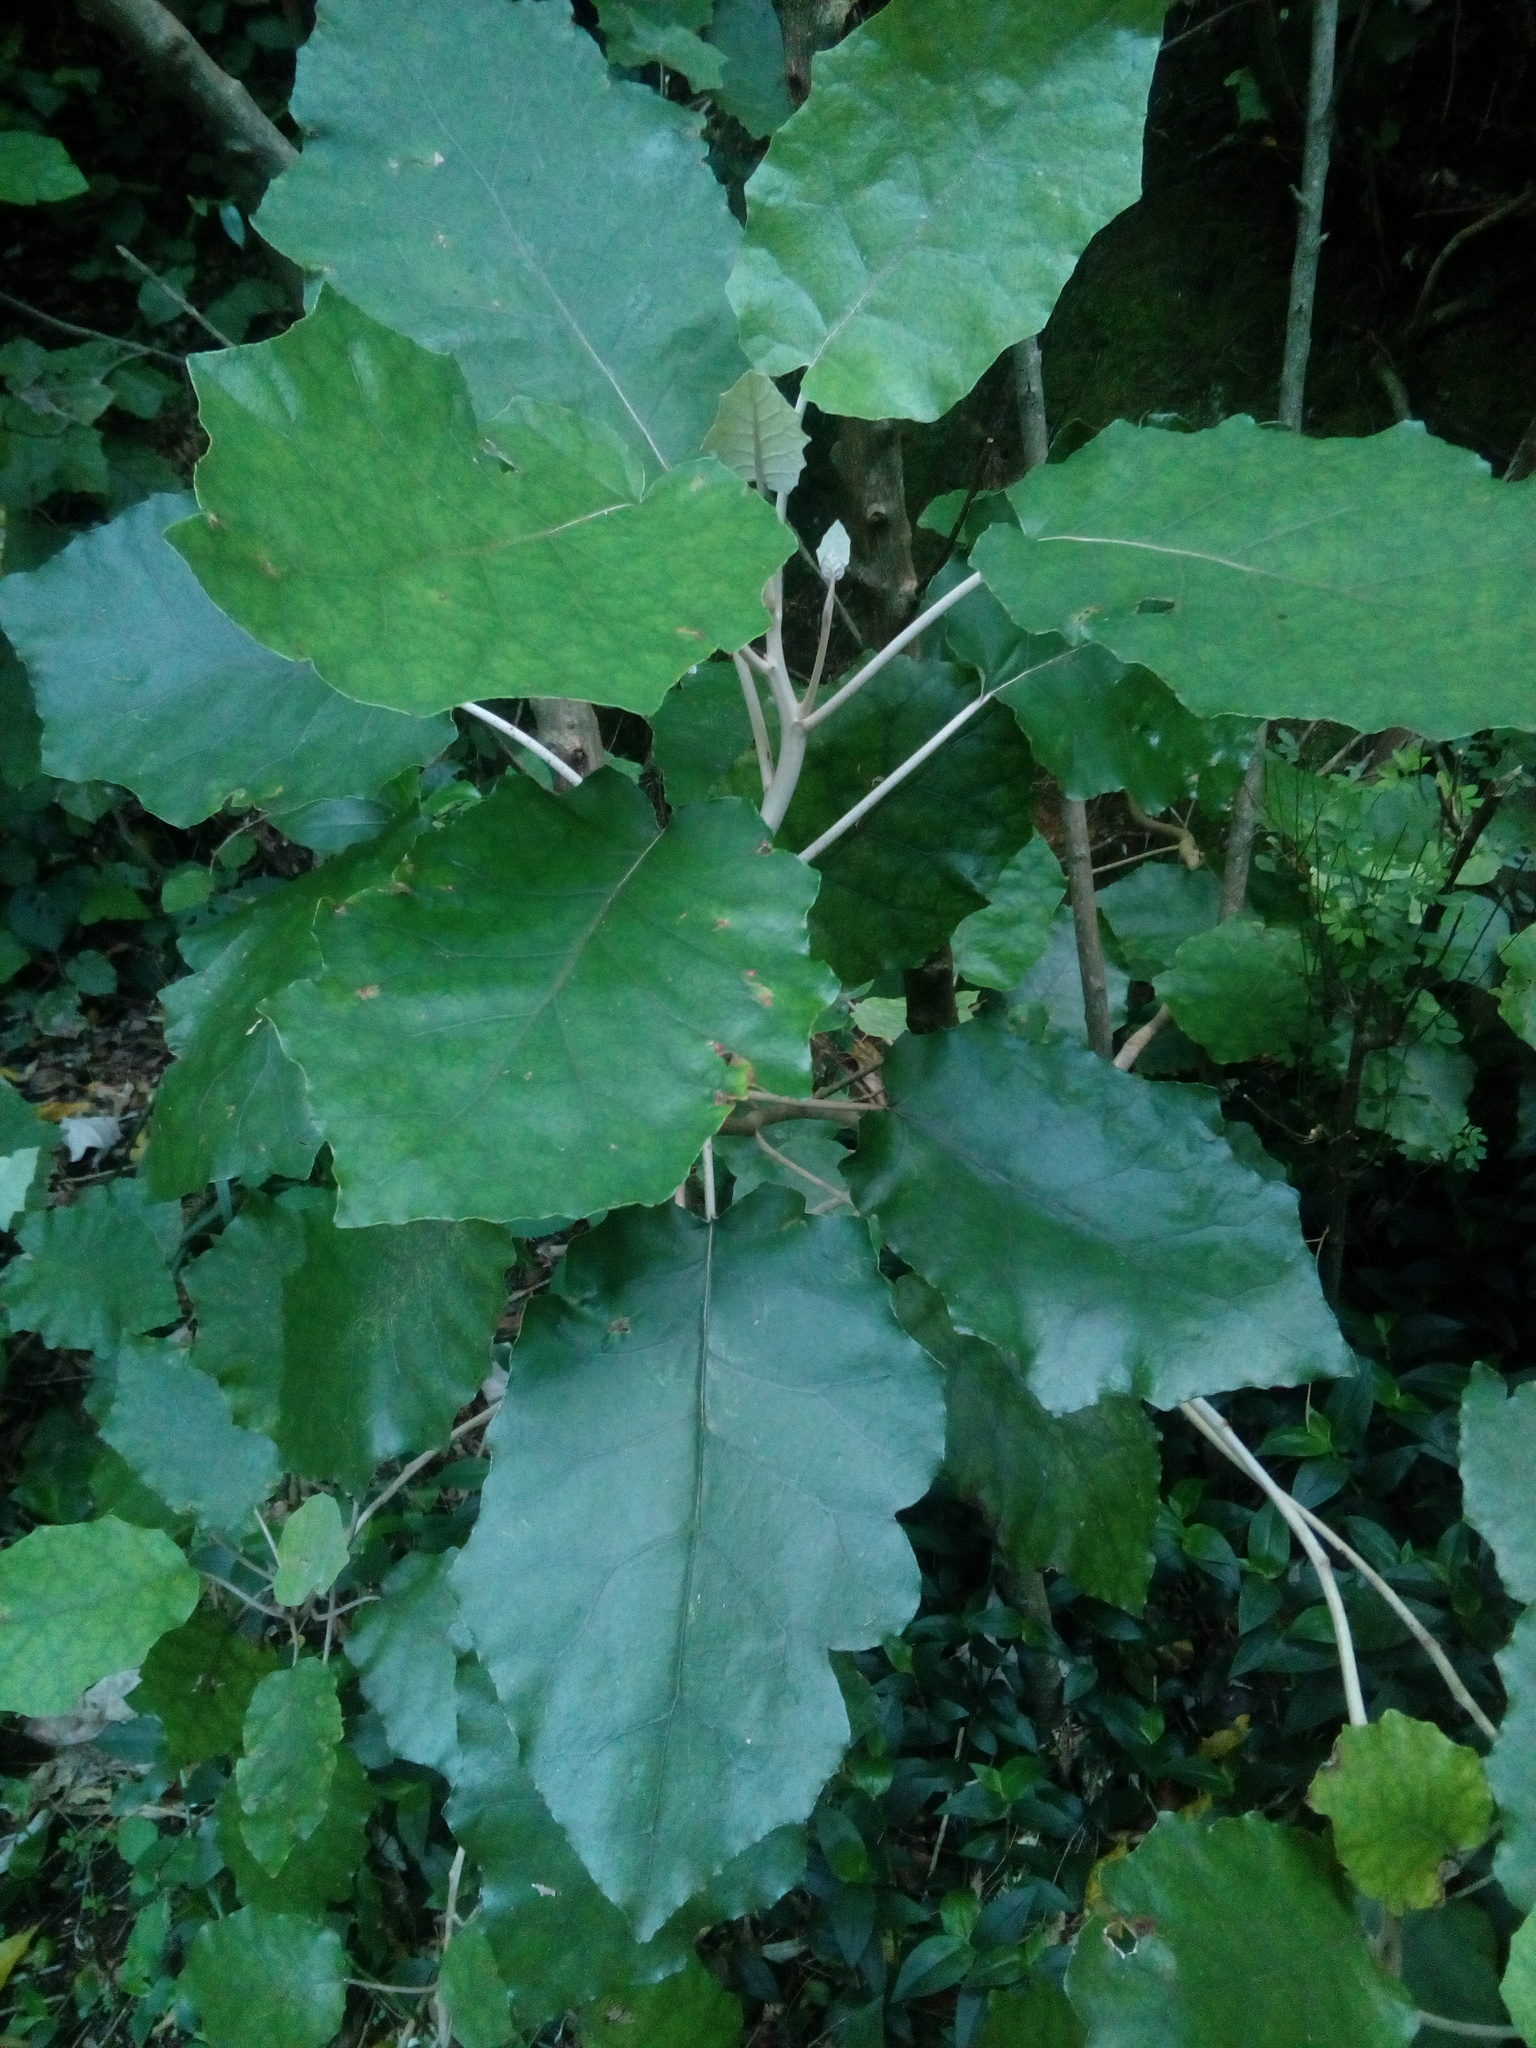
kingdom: Plantae
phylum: Tracheophyta
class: Magnoliopsida
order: Asterales
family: Asteraceae
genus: Brachyglottis
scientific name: Brachyglottis repanda
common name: Hedge ragwort
